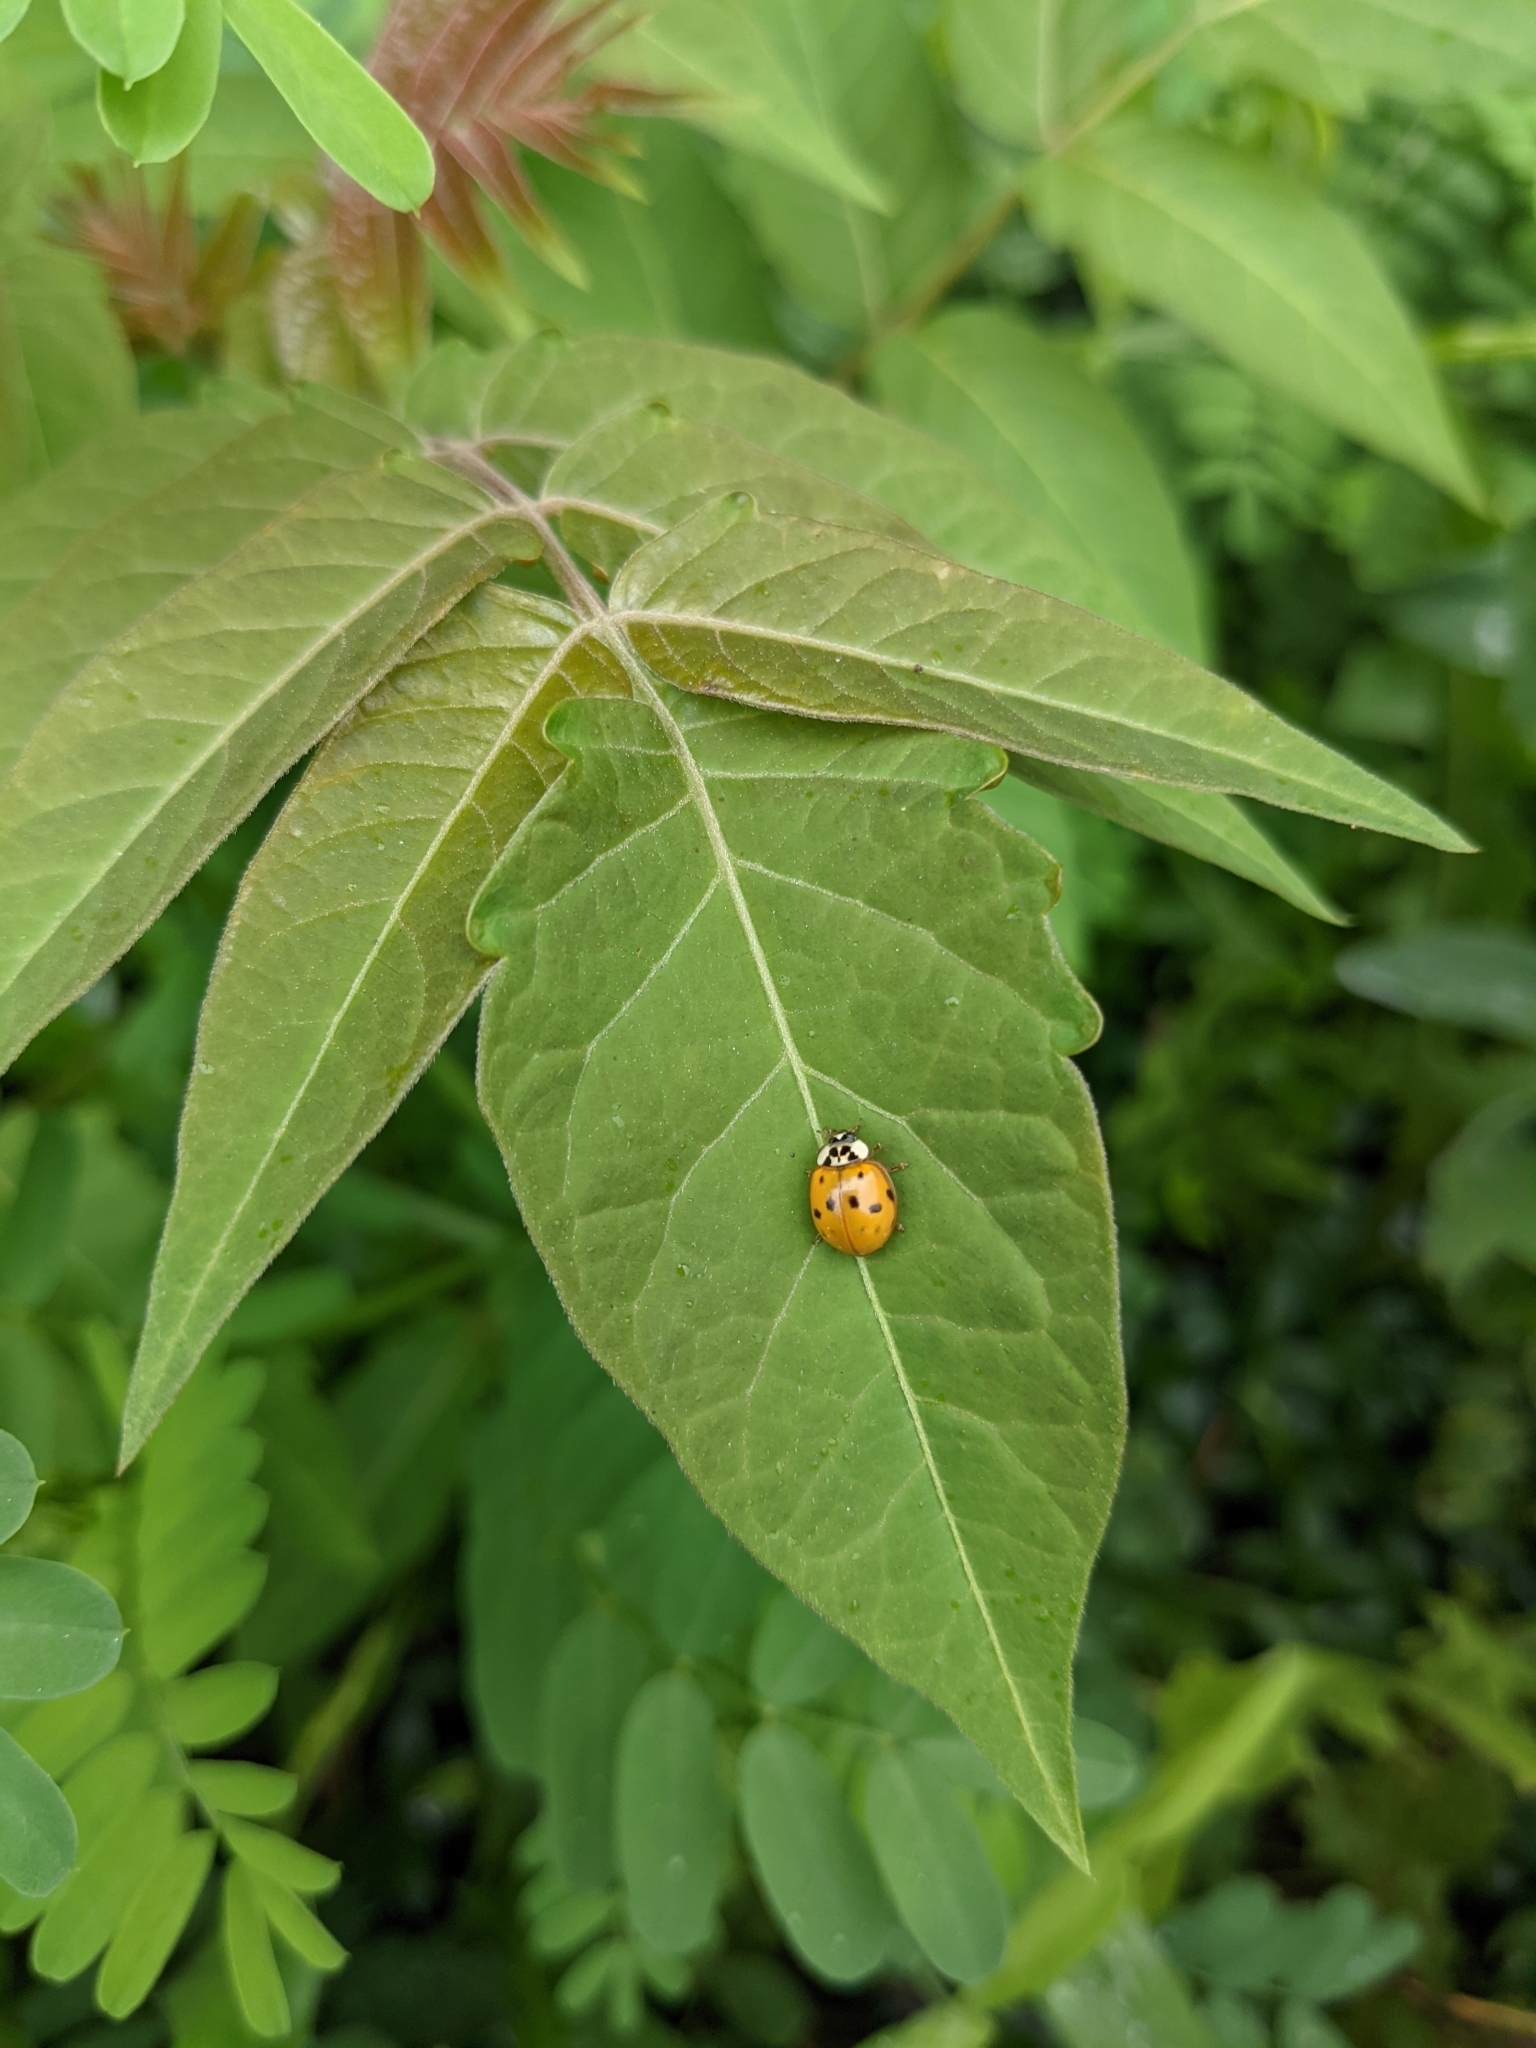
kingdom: Animalia
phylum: Arthropoda
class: Insecta
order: Coleoptera
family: Coccinellidae
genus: Harmonia
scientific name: Harmonia axyridis
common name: Harlequin ladybird
